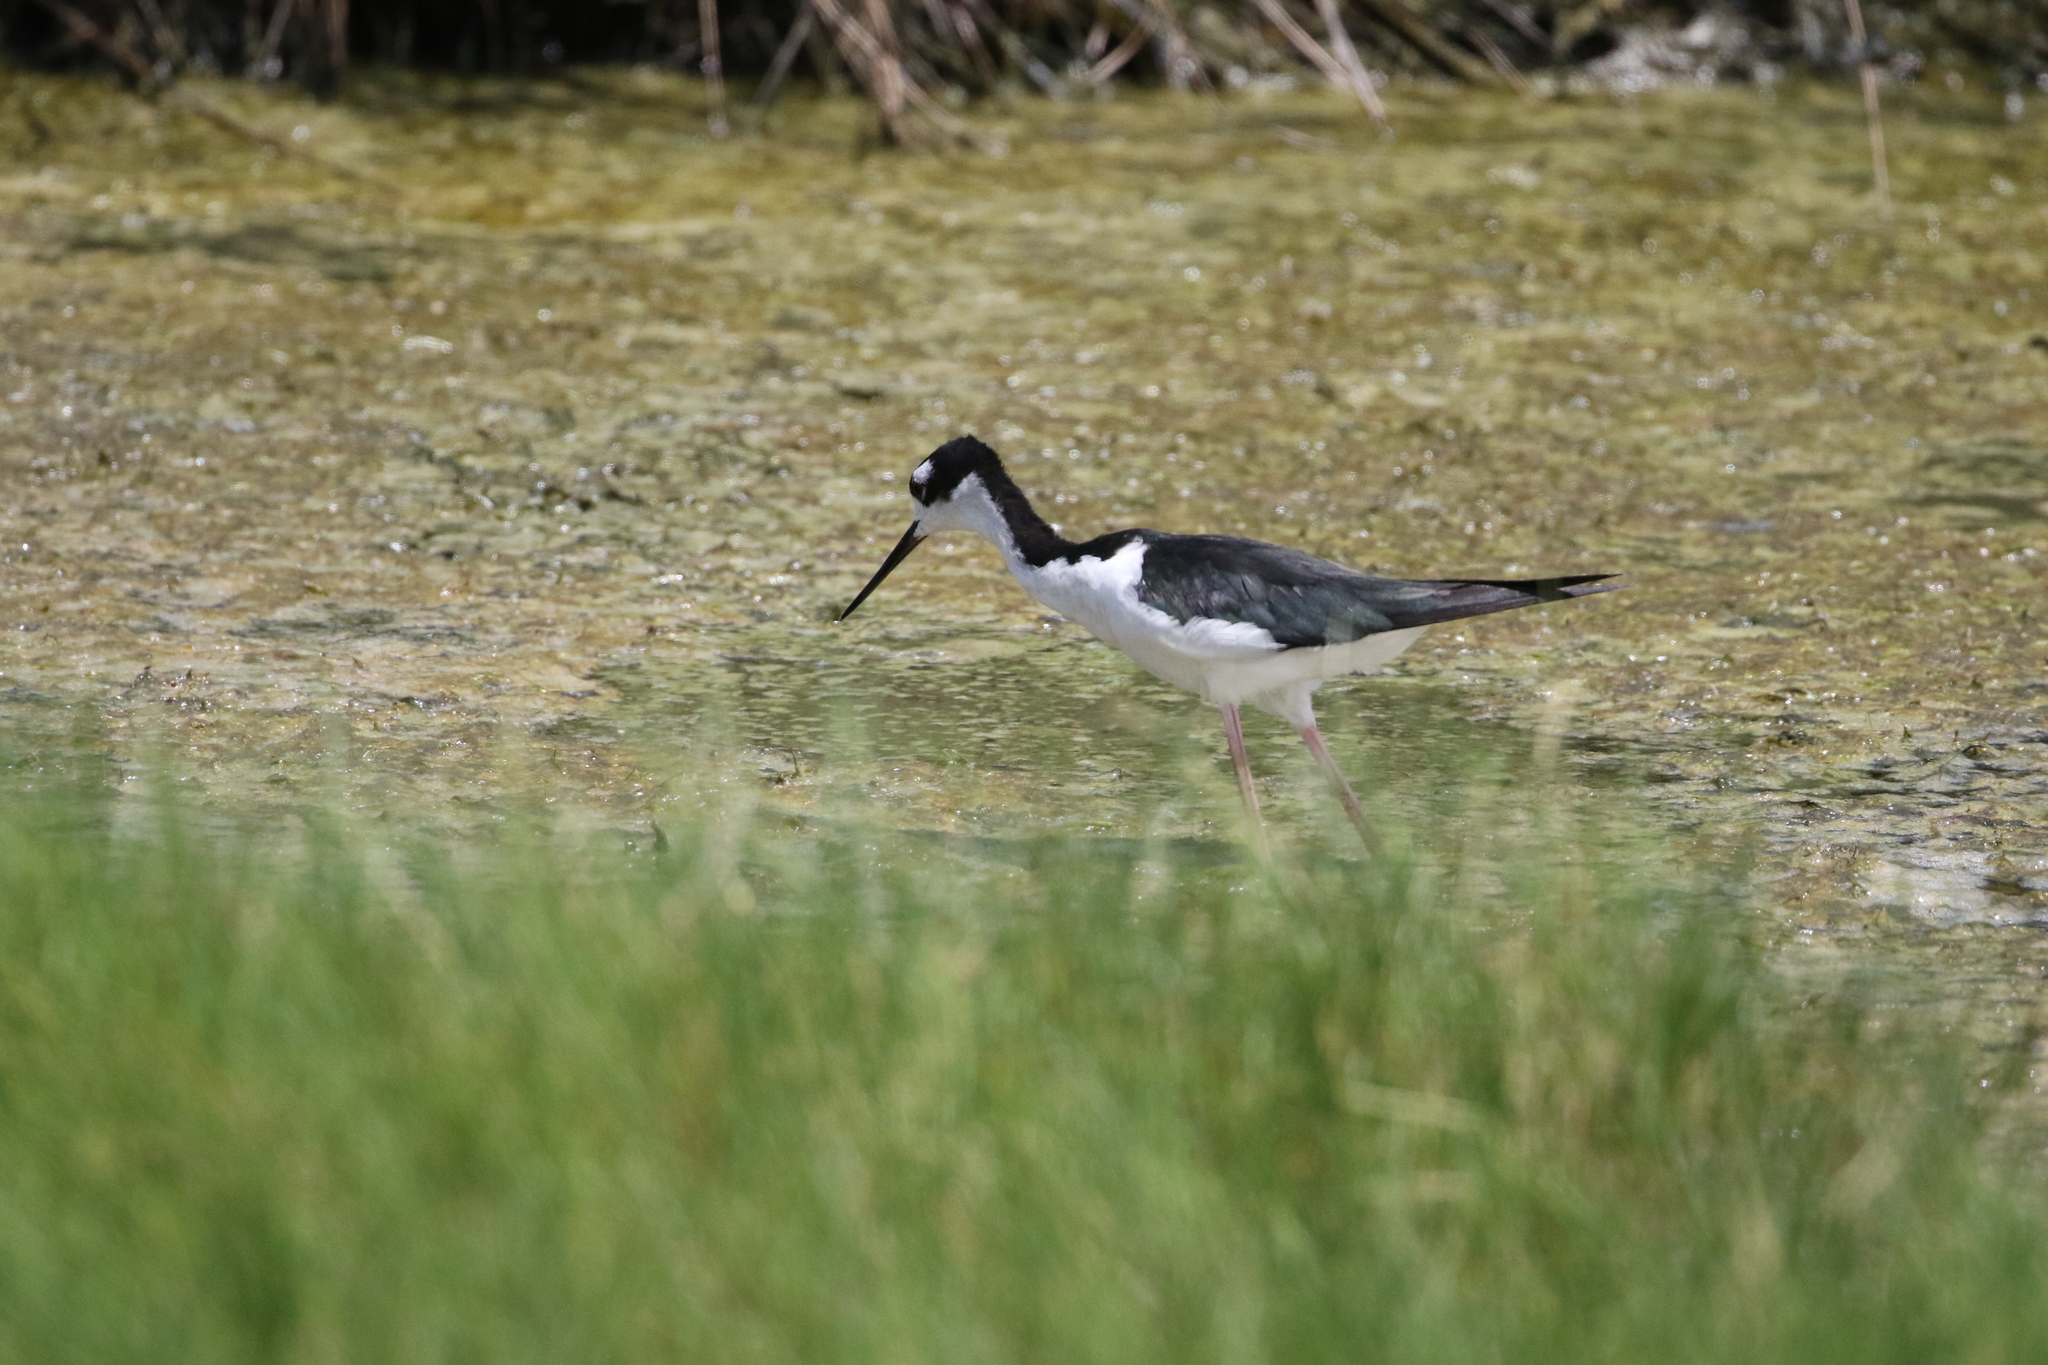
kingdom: Animalia
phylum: Chordata
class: Aves
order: Charadriiformes
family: Recurvirostridae
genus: Himantopus
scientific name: Himantopus mexicanus
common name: Black-necked stilt
